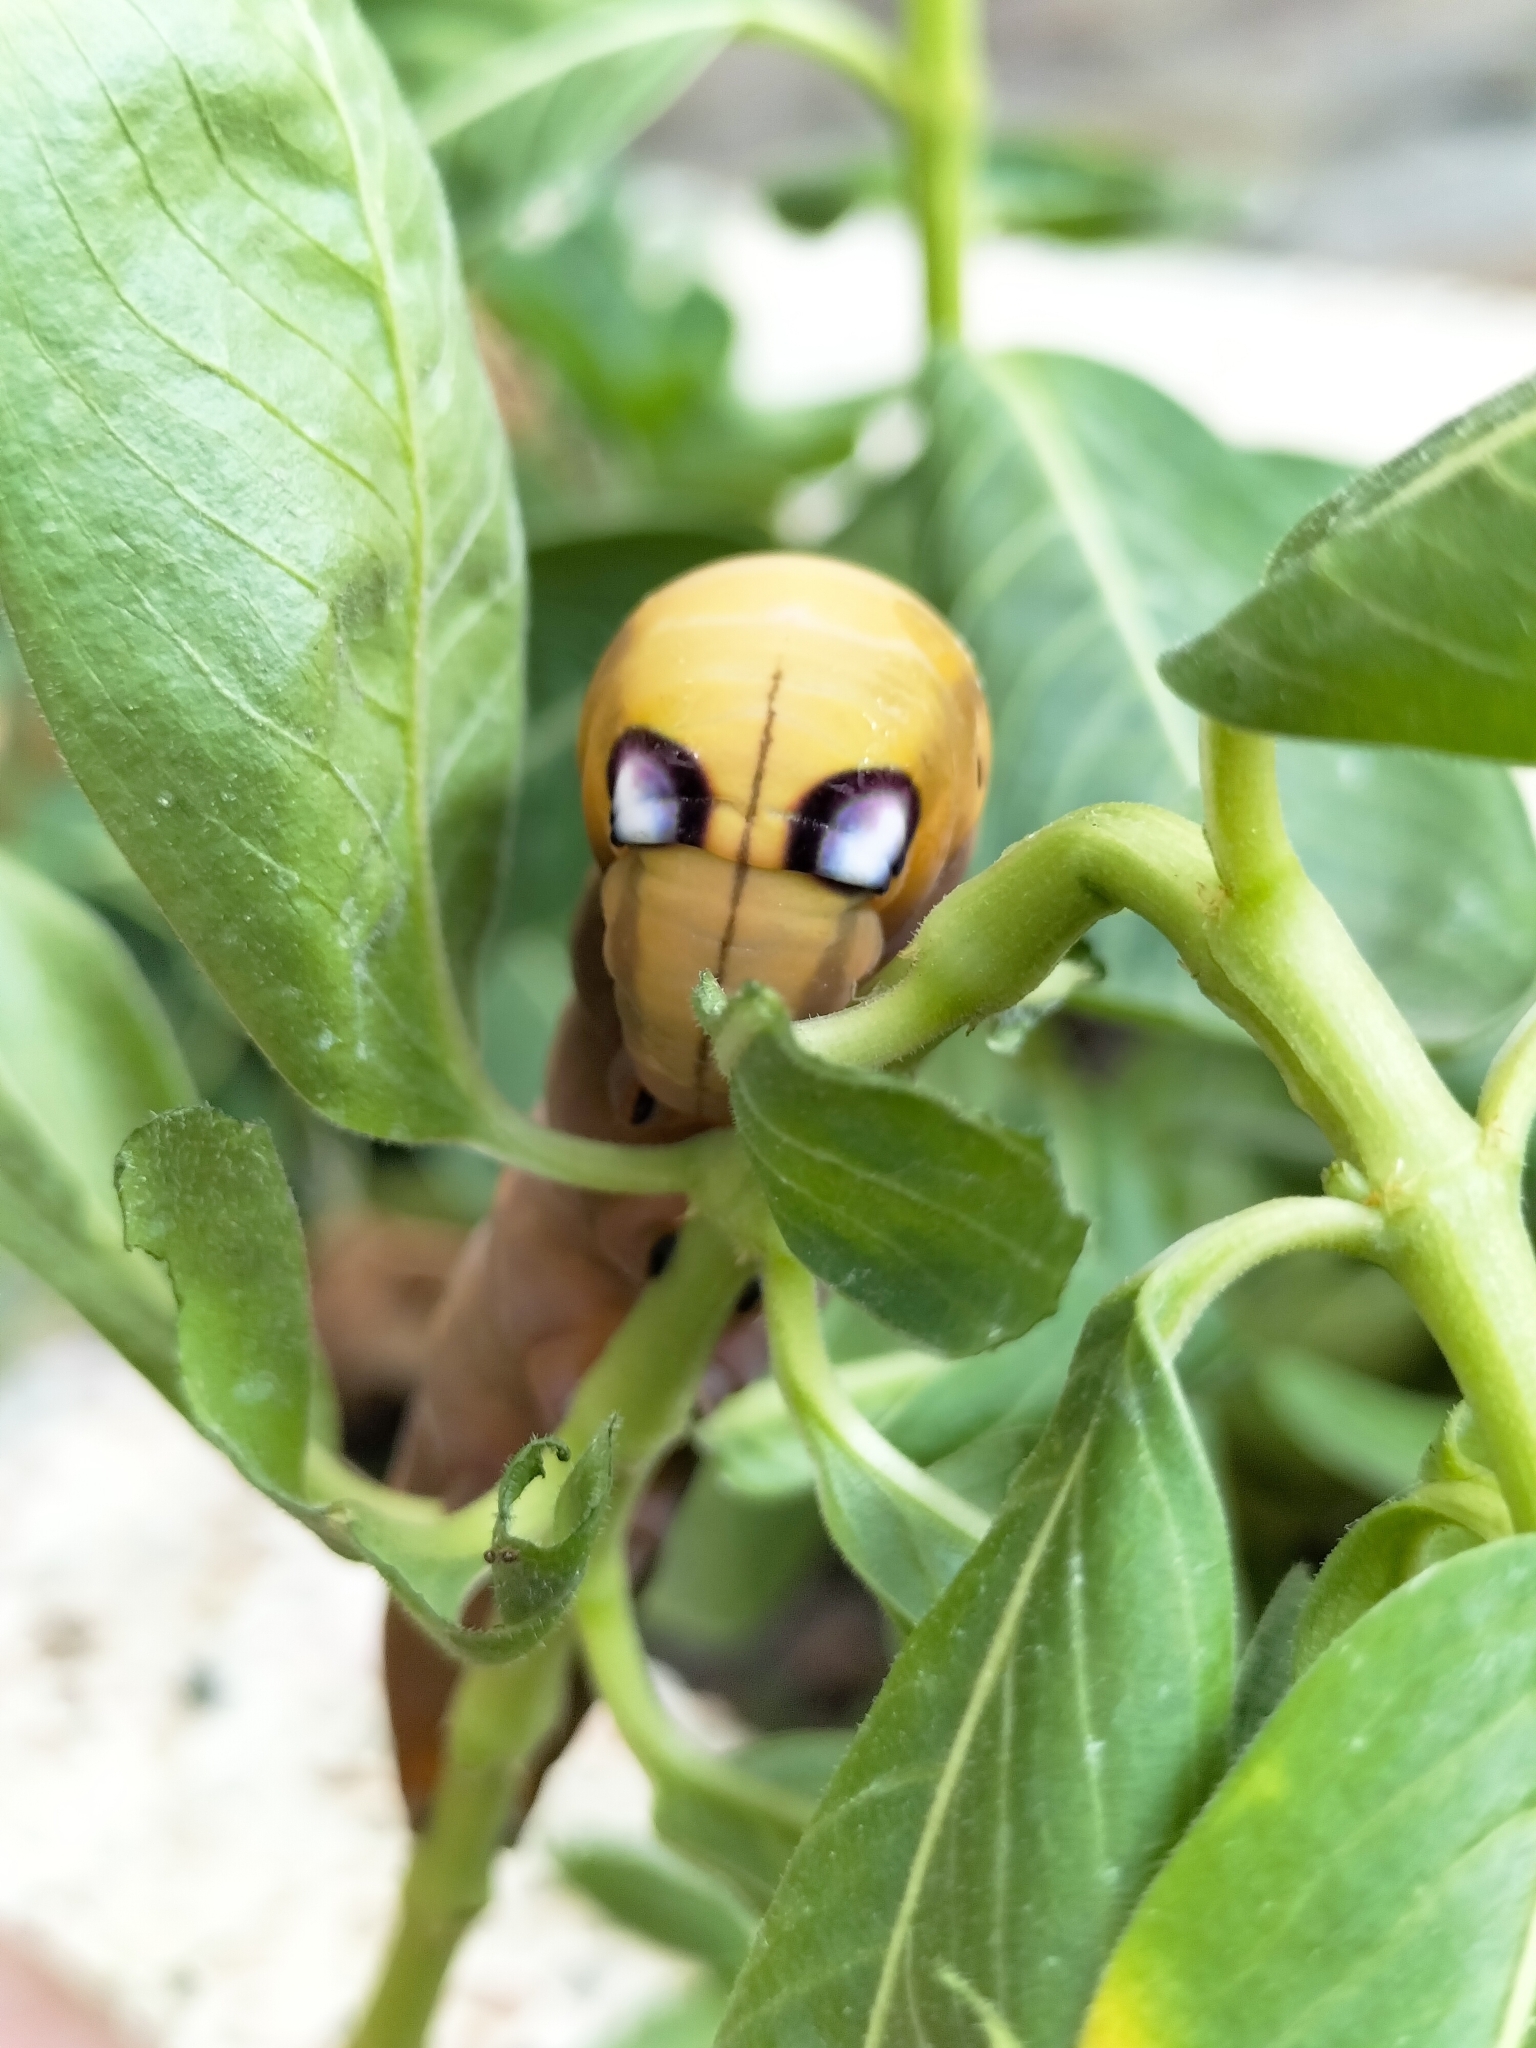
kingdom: Animalia
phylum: Arthropoda
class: Insecta
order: Lepidoptera
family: Sphingidae
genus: Daphnis
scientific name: Daphnis nerii
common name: Oleander hawk-moth
